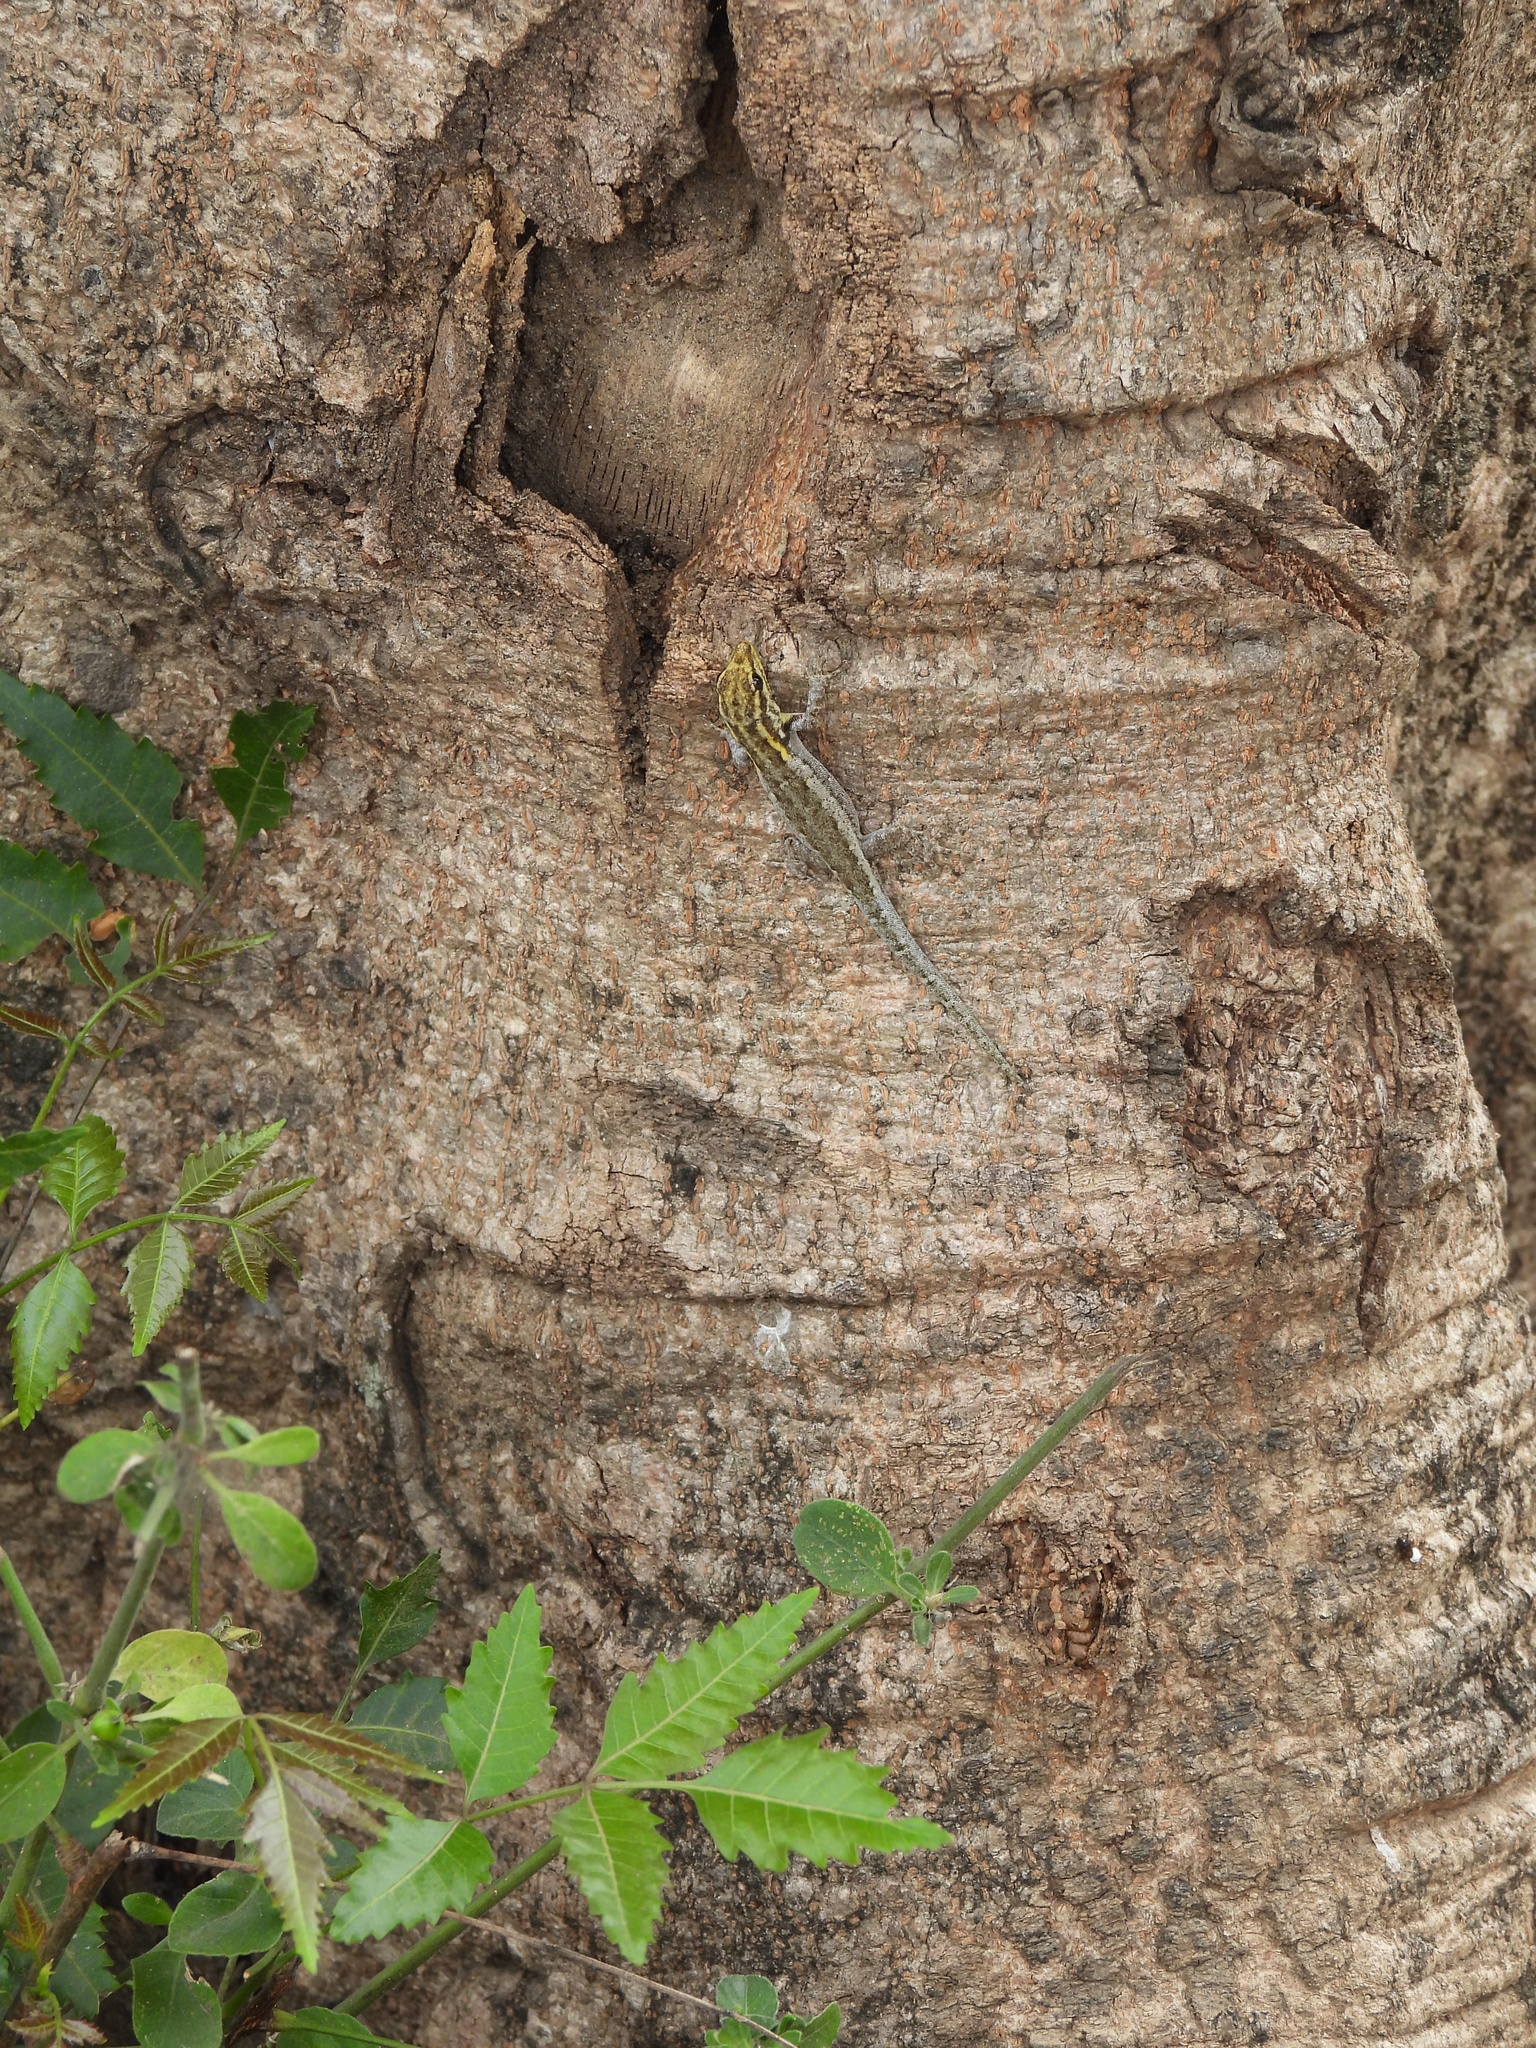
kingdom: Animalia
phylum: Chordata
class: Squamata
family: Gekkonidae
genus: Lygodactylus
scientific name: Lygodactylus picturatus
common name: Painted dwarf gecko
